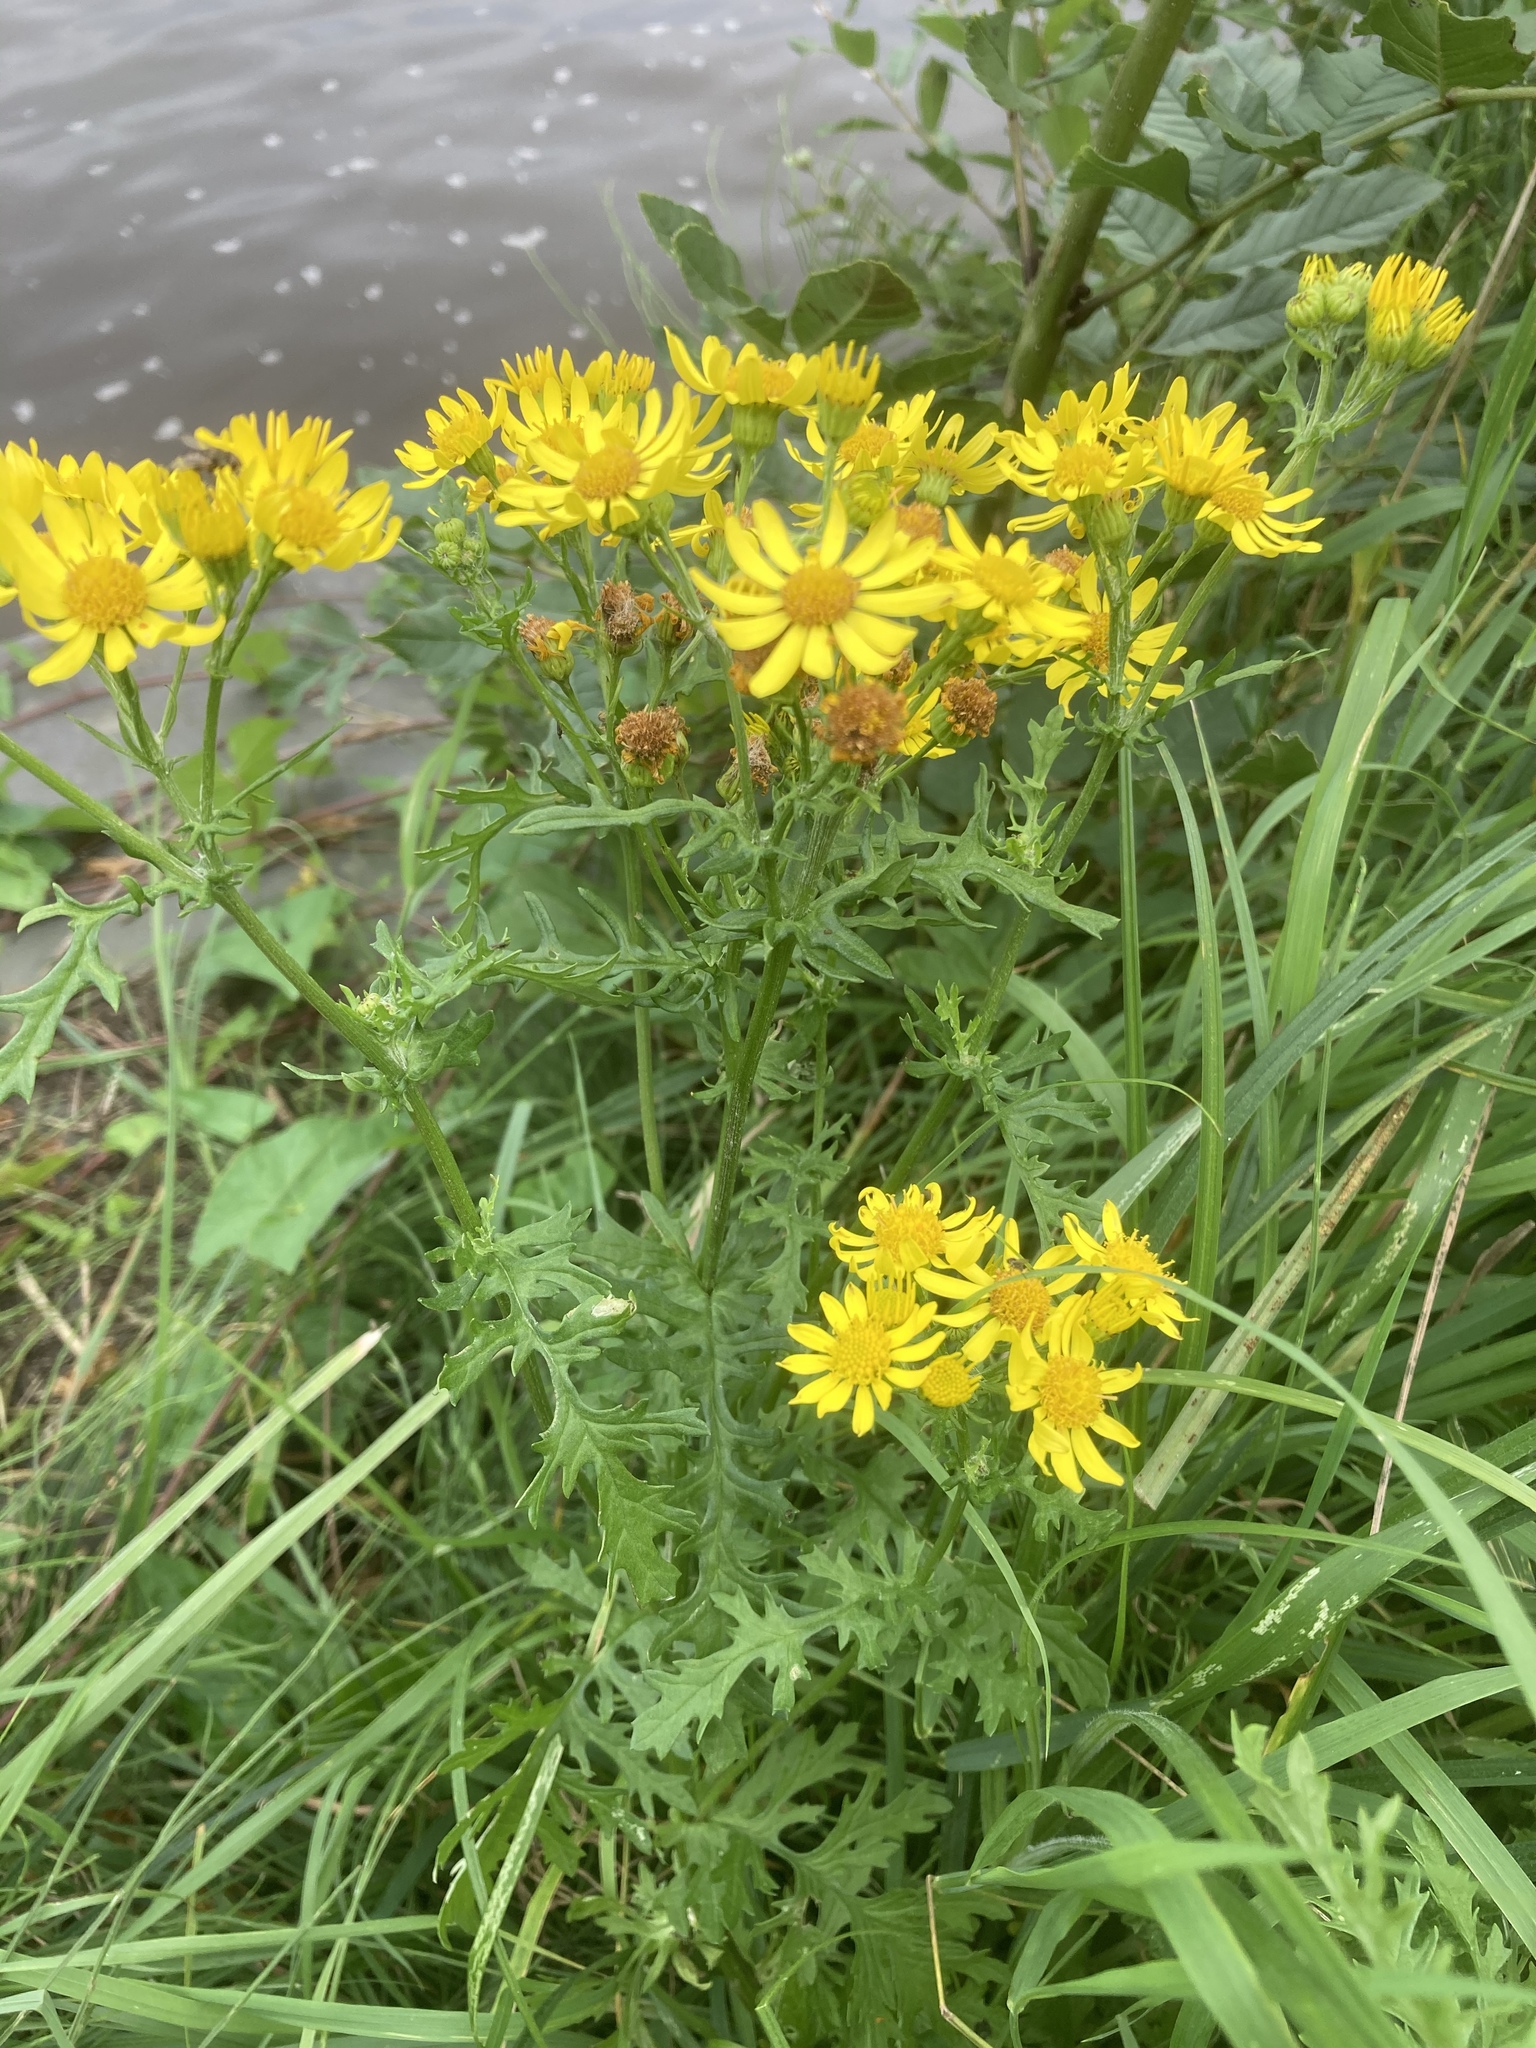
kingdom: Plantae
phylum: Tracheophyta
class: Magnoliopsida
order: Asterales
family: Asteraceae
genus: Jacobaea
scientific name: Jacobaea vulgaris
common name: Stinking willie
